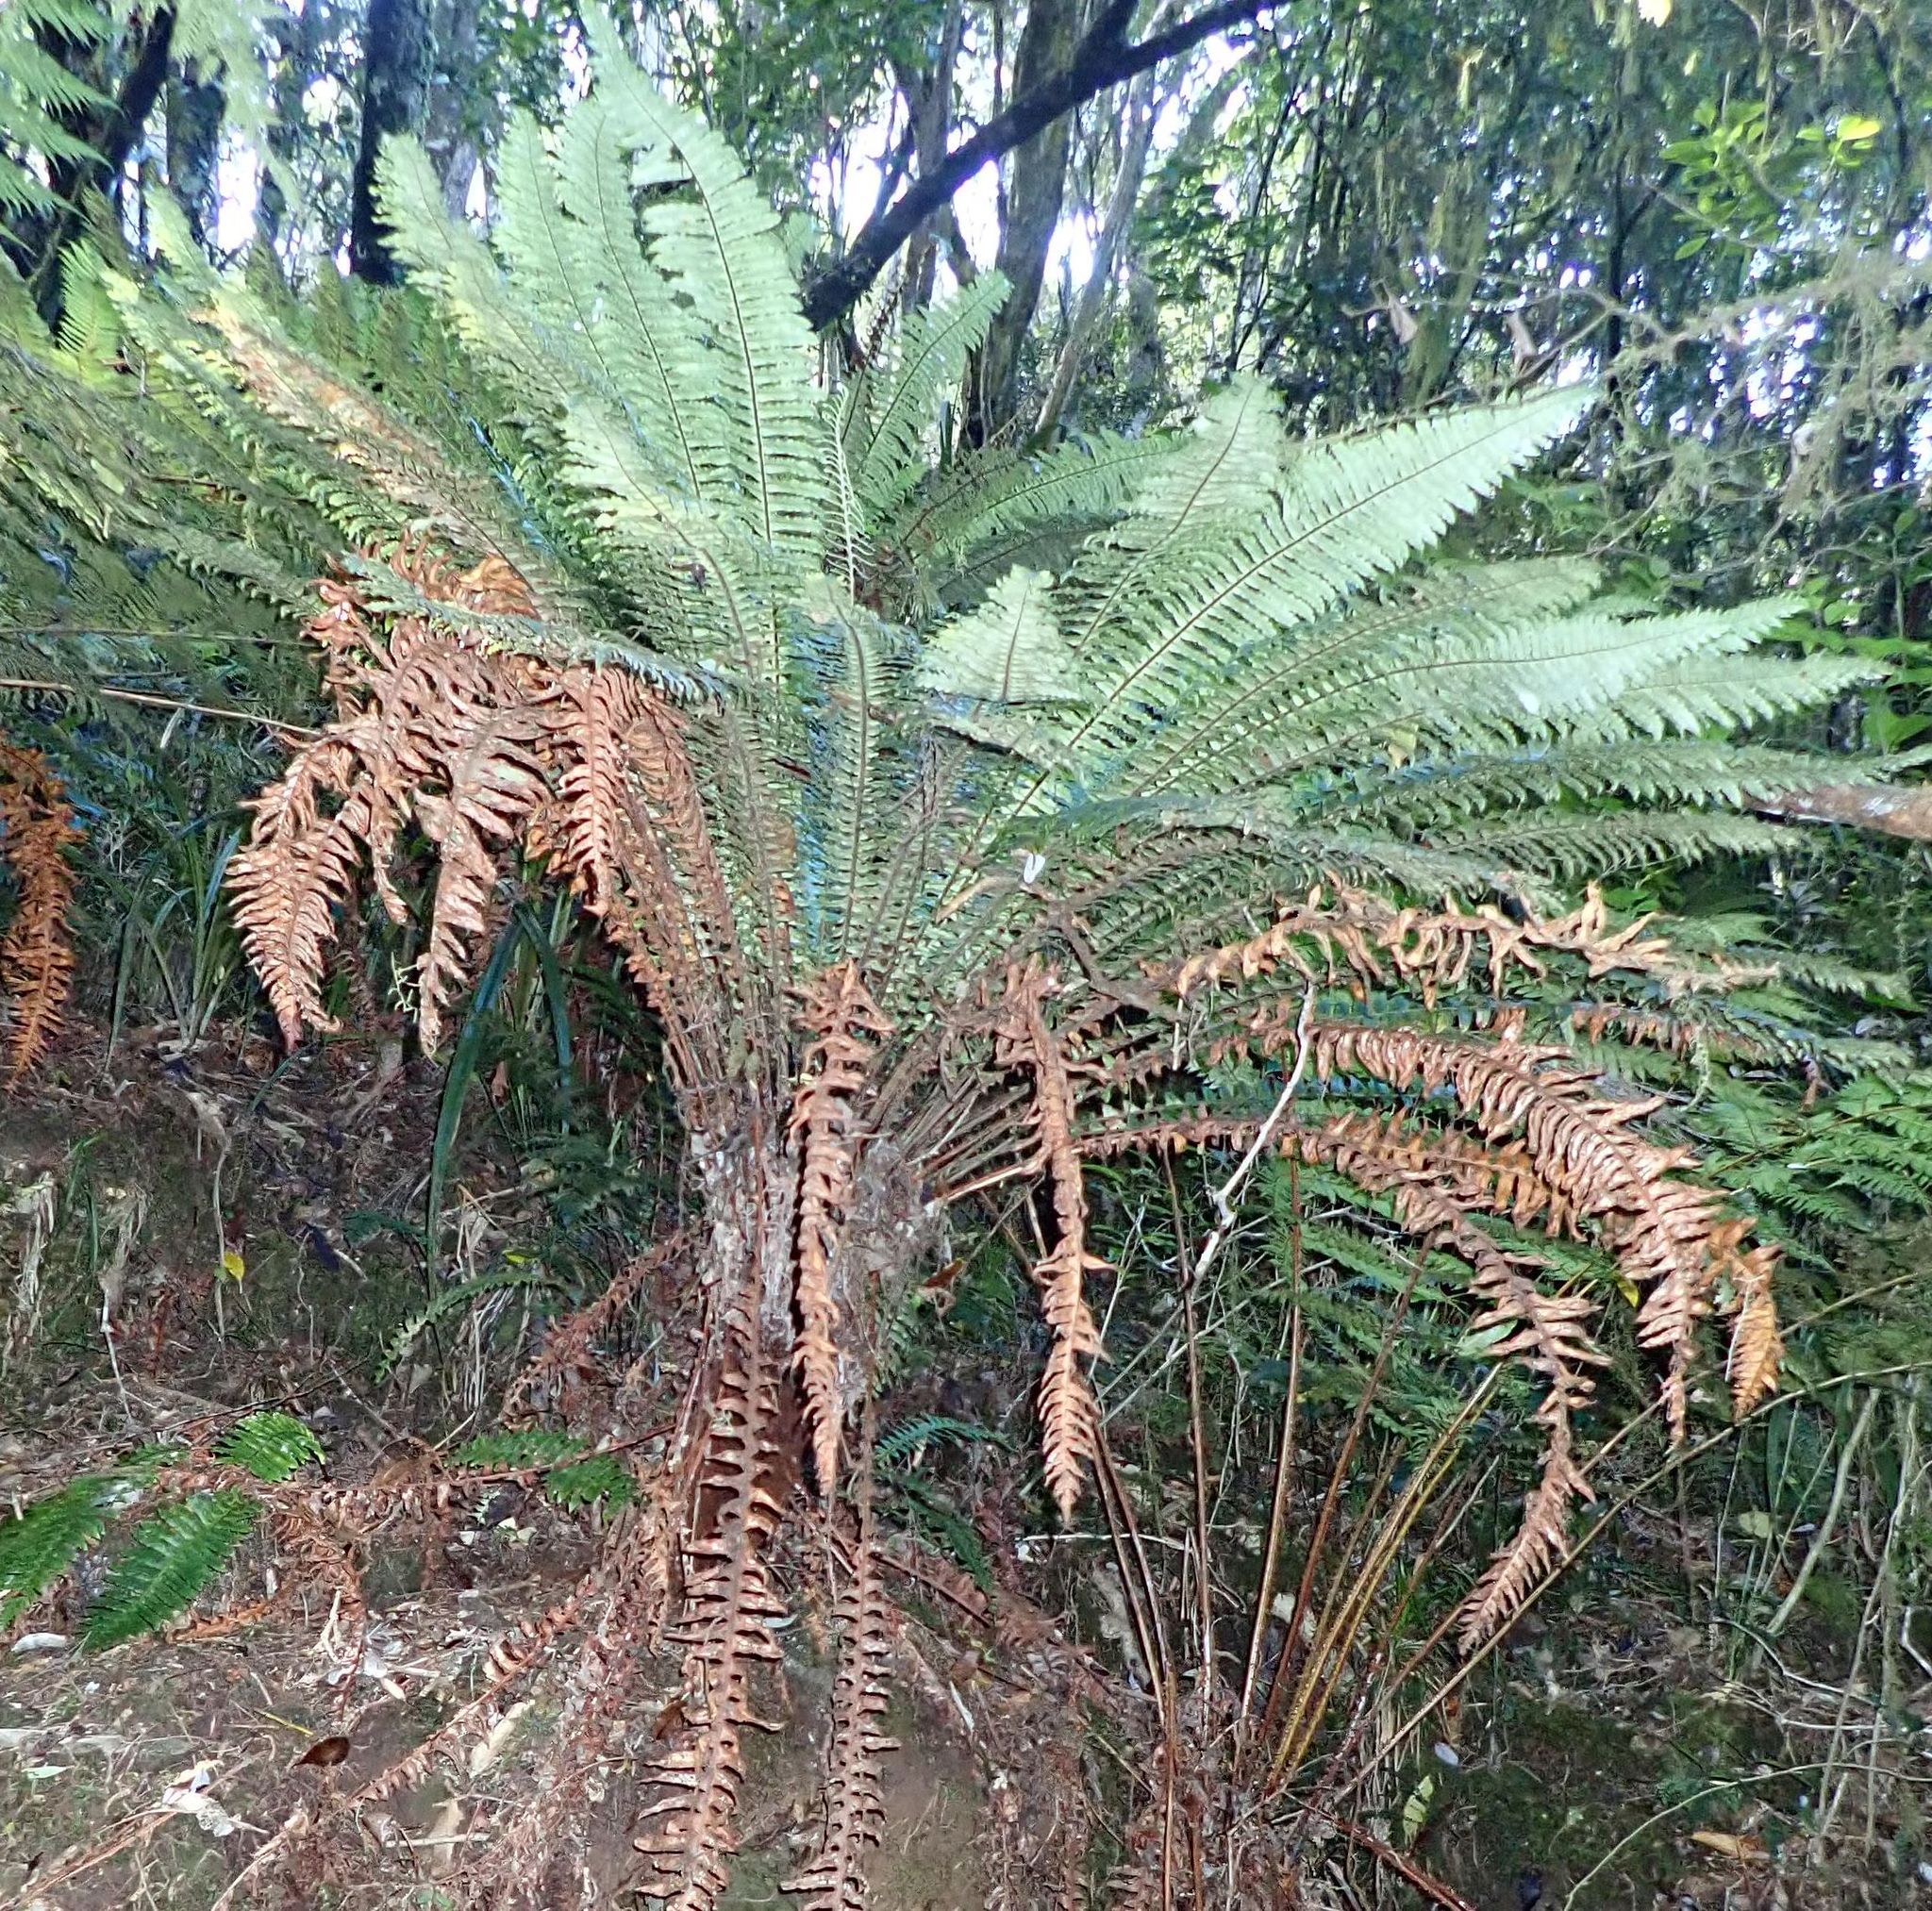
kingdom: Plantae
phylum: Tracheophyta
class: Polypodiopsida
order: Polypodiales
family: Blechnaceae
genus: Lomaria
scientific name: Lomaria discolor
